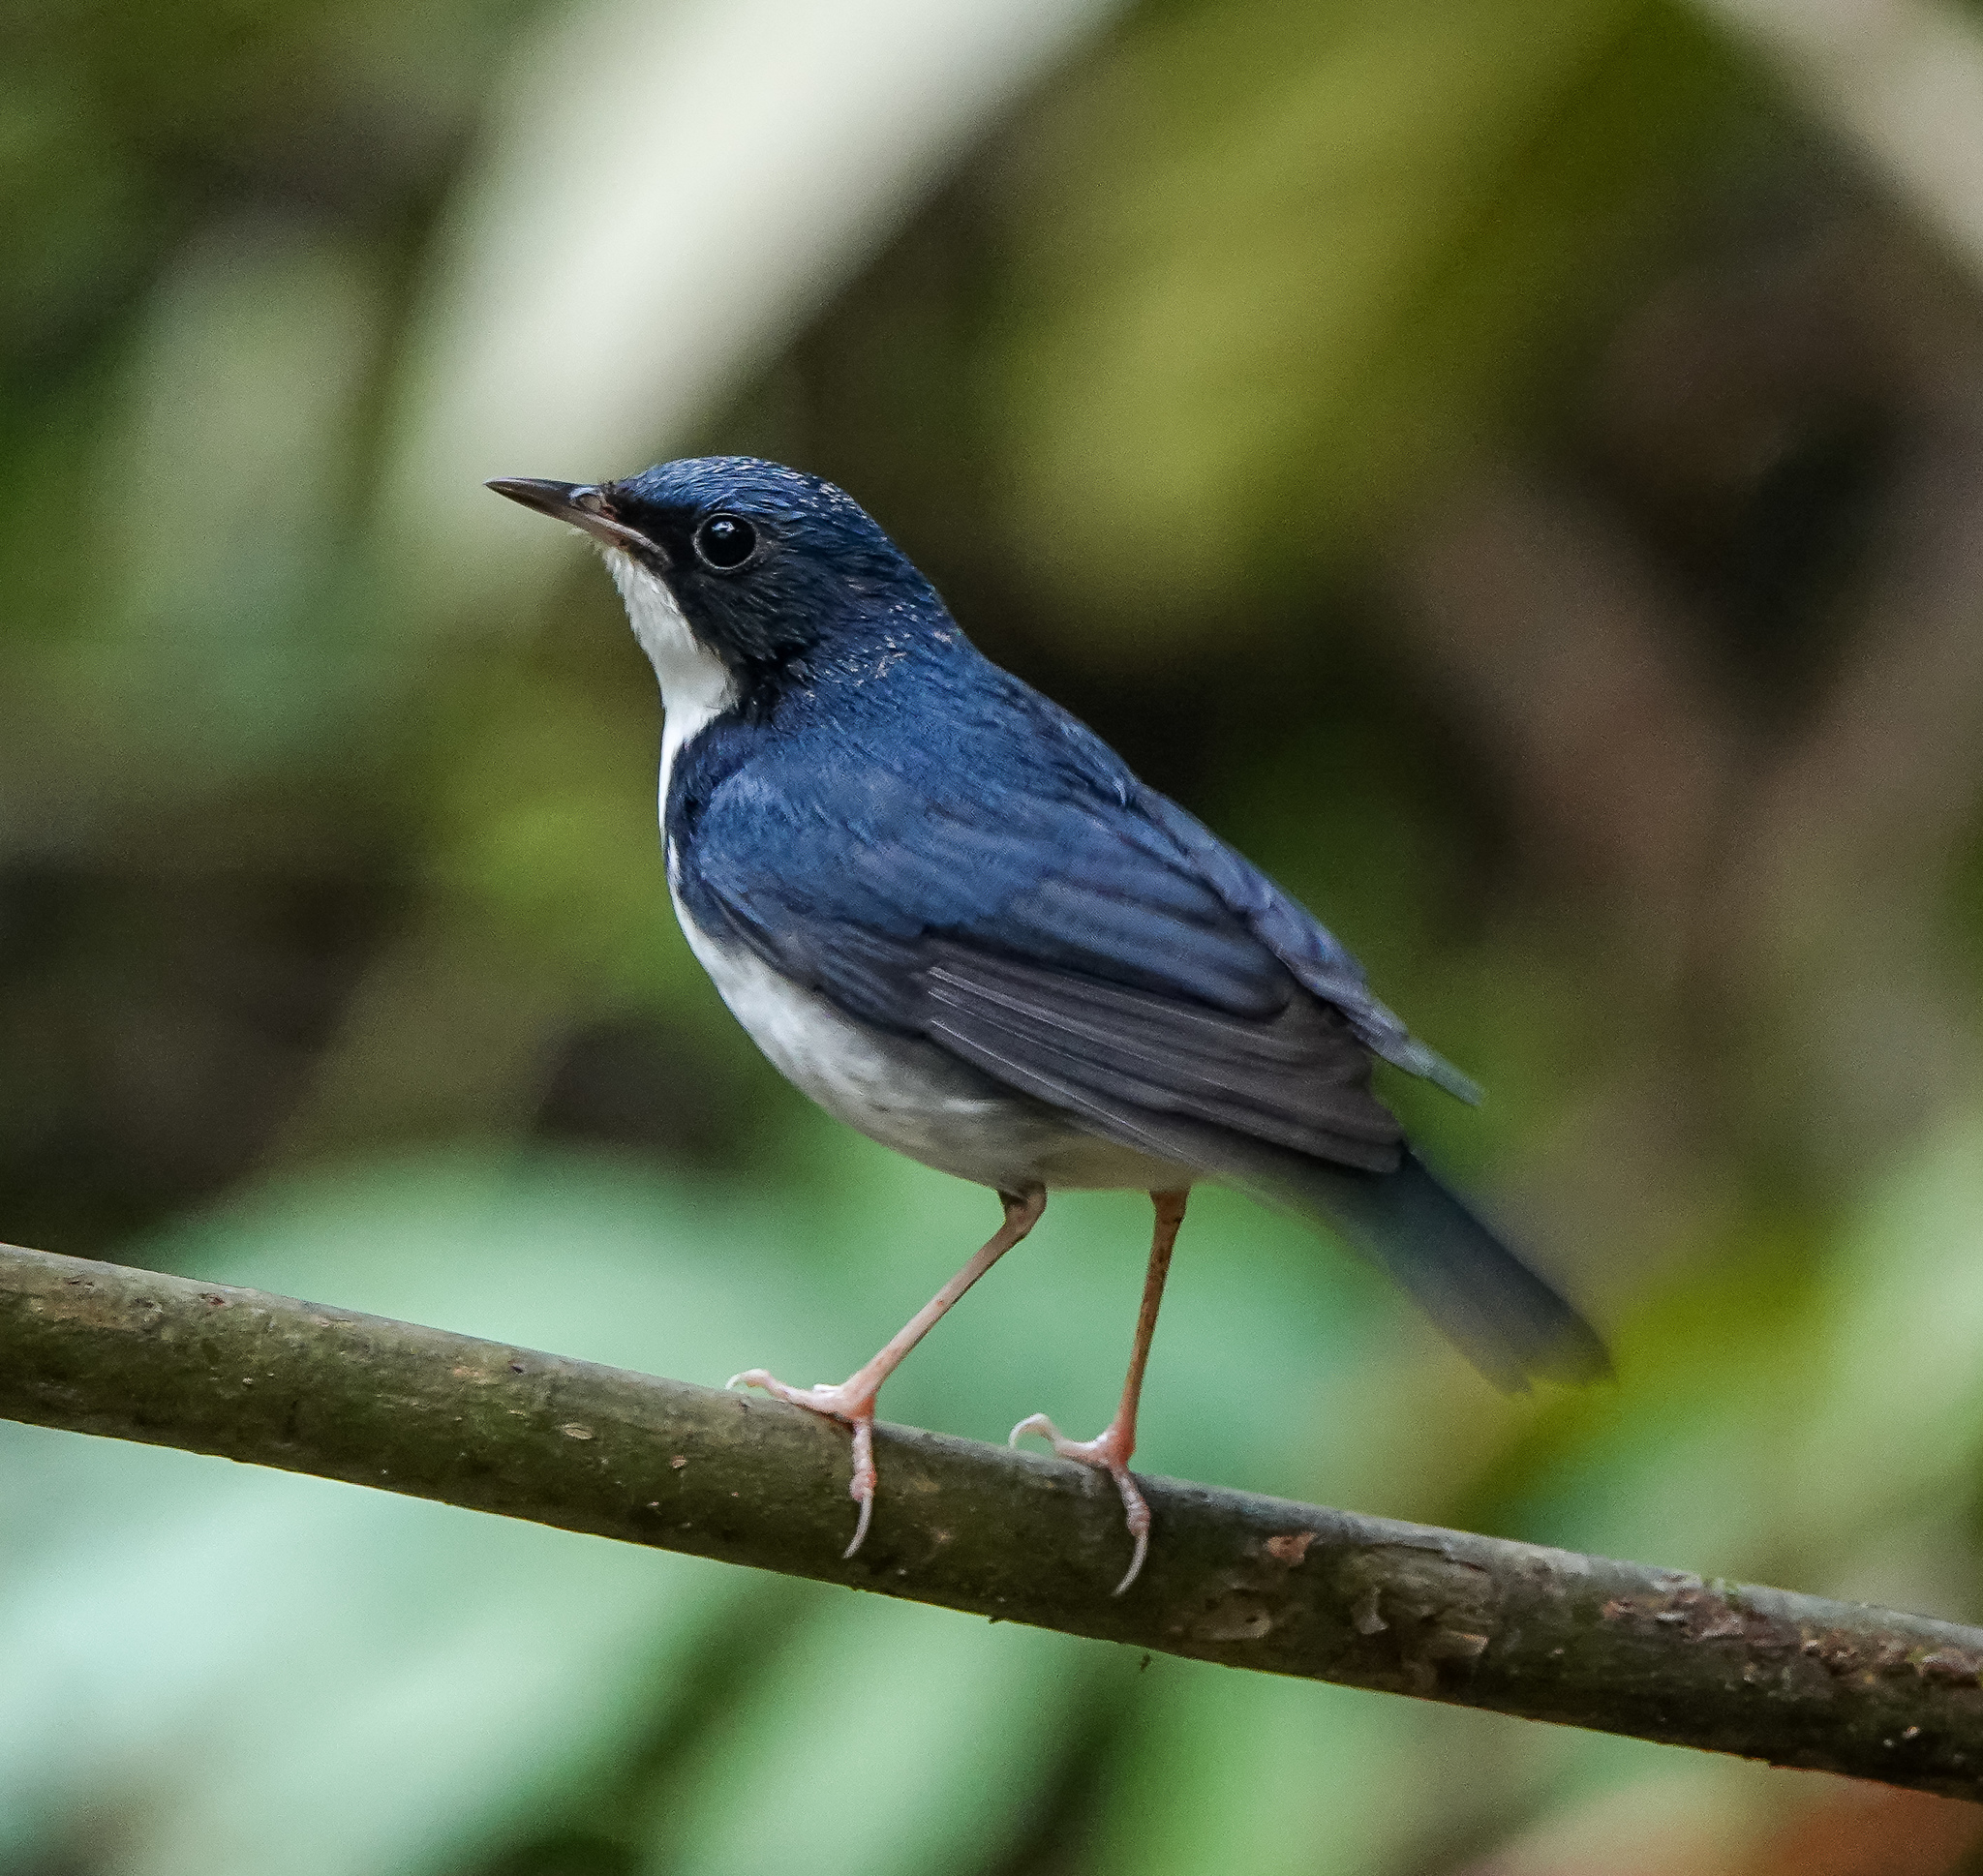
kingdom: Animalia
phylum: Chordata
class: Aves
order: Passeriformes
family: Muscicapidae
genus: Luscinia
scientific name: Luscinia cyane
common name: Siberian blue robin
